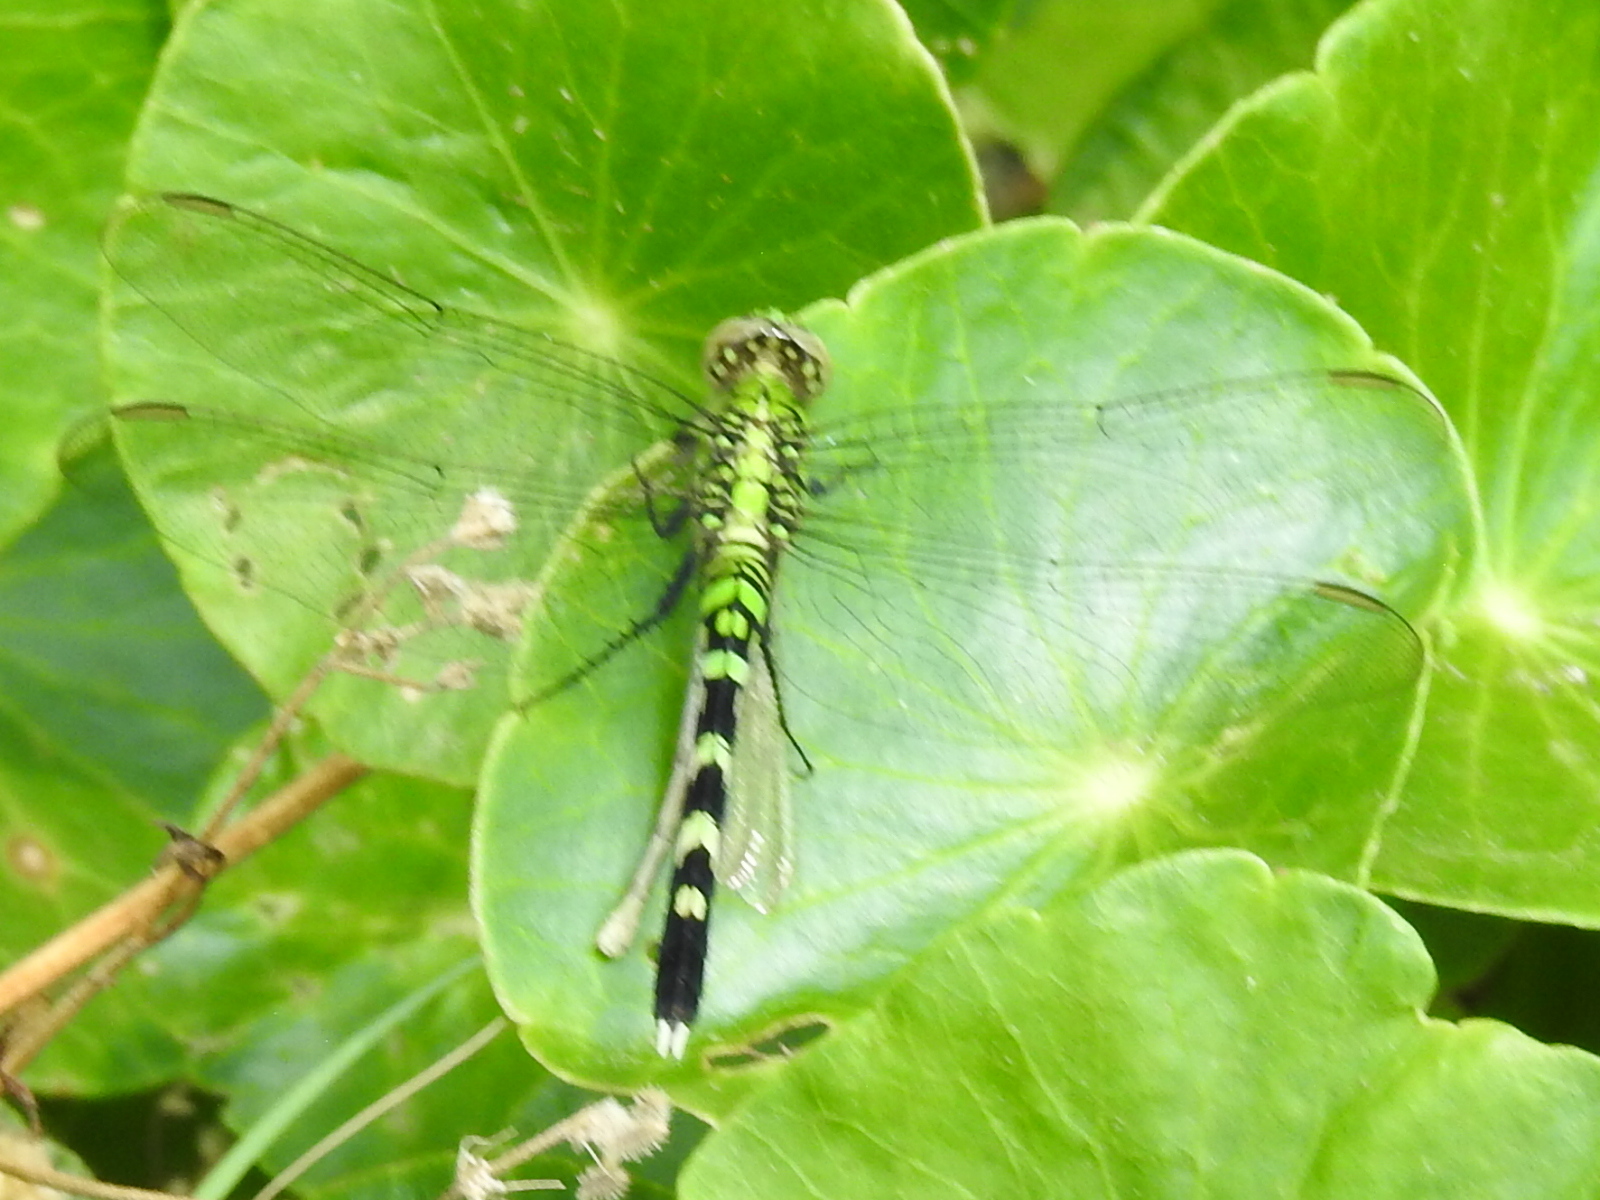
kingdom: Animalia
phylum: Arthropoda
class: Insecta
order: Odonata
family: Libellulidae
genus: Erythemis
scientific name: Erythemis simplicicollis
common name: Eastern pondhawk
